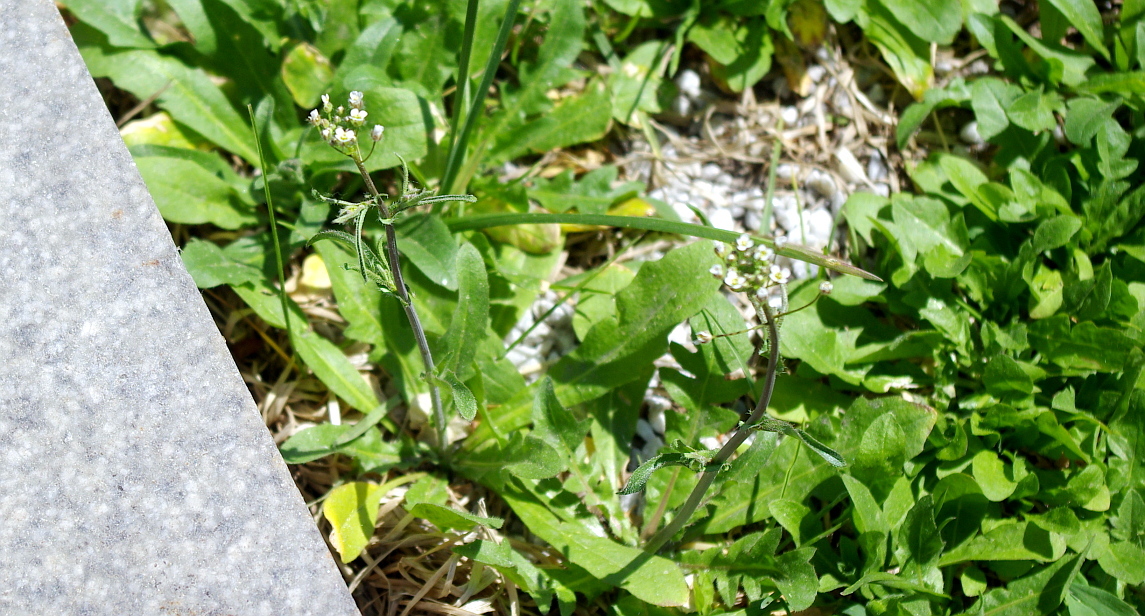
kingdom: Plantae
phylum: Tracheophyta
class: Magnoliopsida
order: Brassicales
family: Brassicaceae
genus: Capsella
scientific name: Capsella bursa-pastoris
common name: Shepherd's purse
